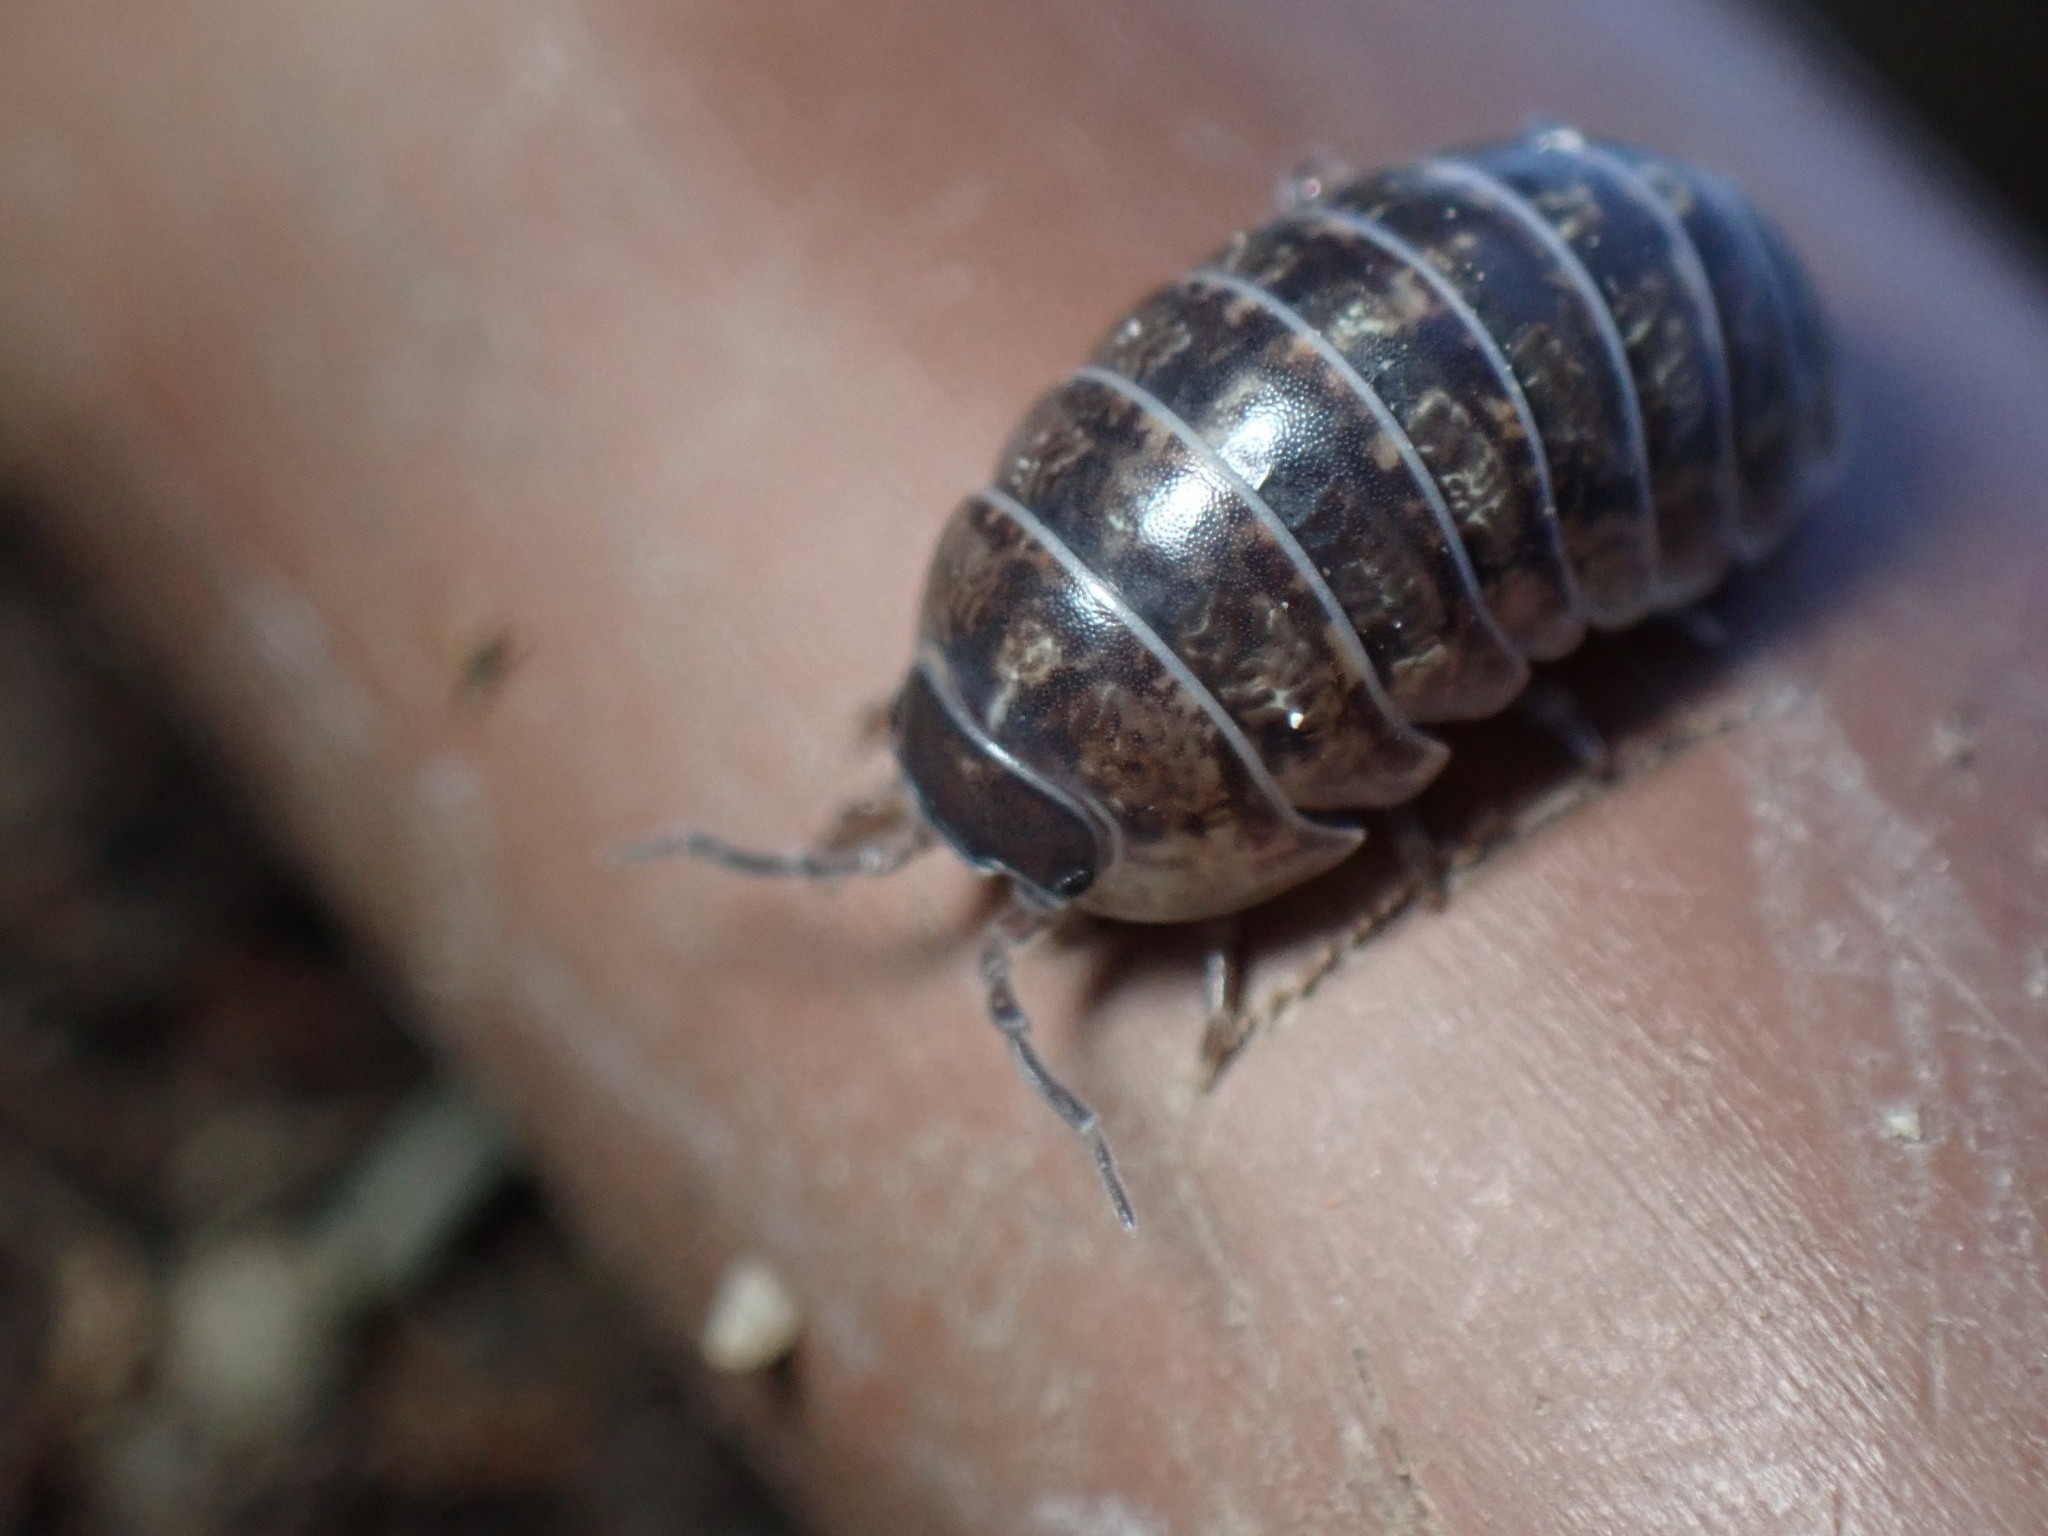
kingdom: Animalia
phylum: Arthropoda
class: Malacostraca
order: Isopoda
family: Armadillidiidae
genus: Armadillidium
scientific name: Armadillidium vulgare
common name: Common pill woodlouse
